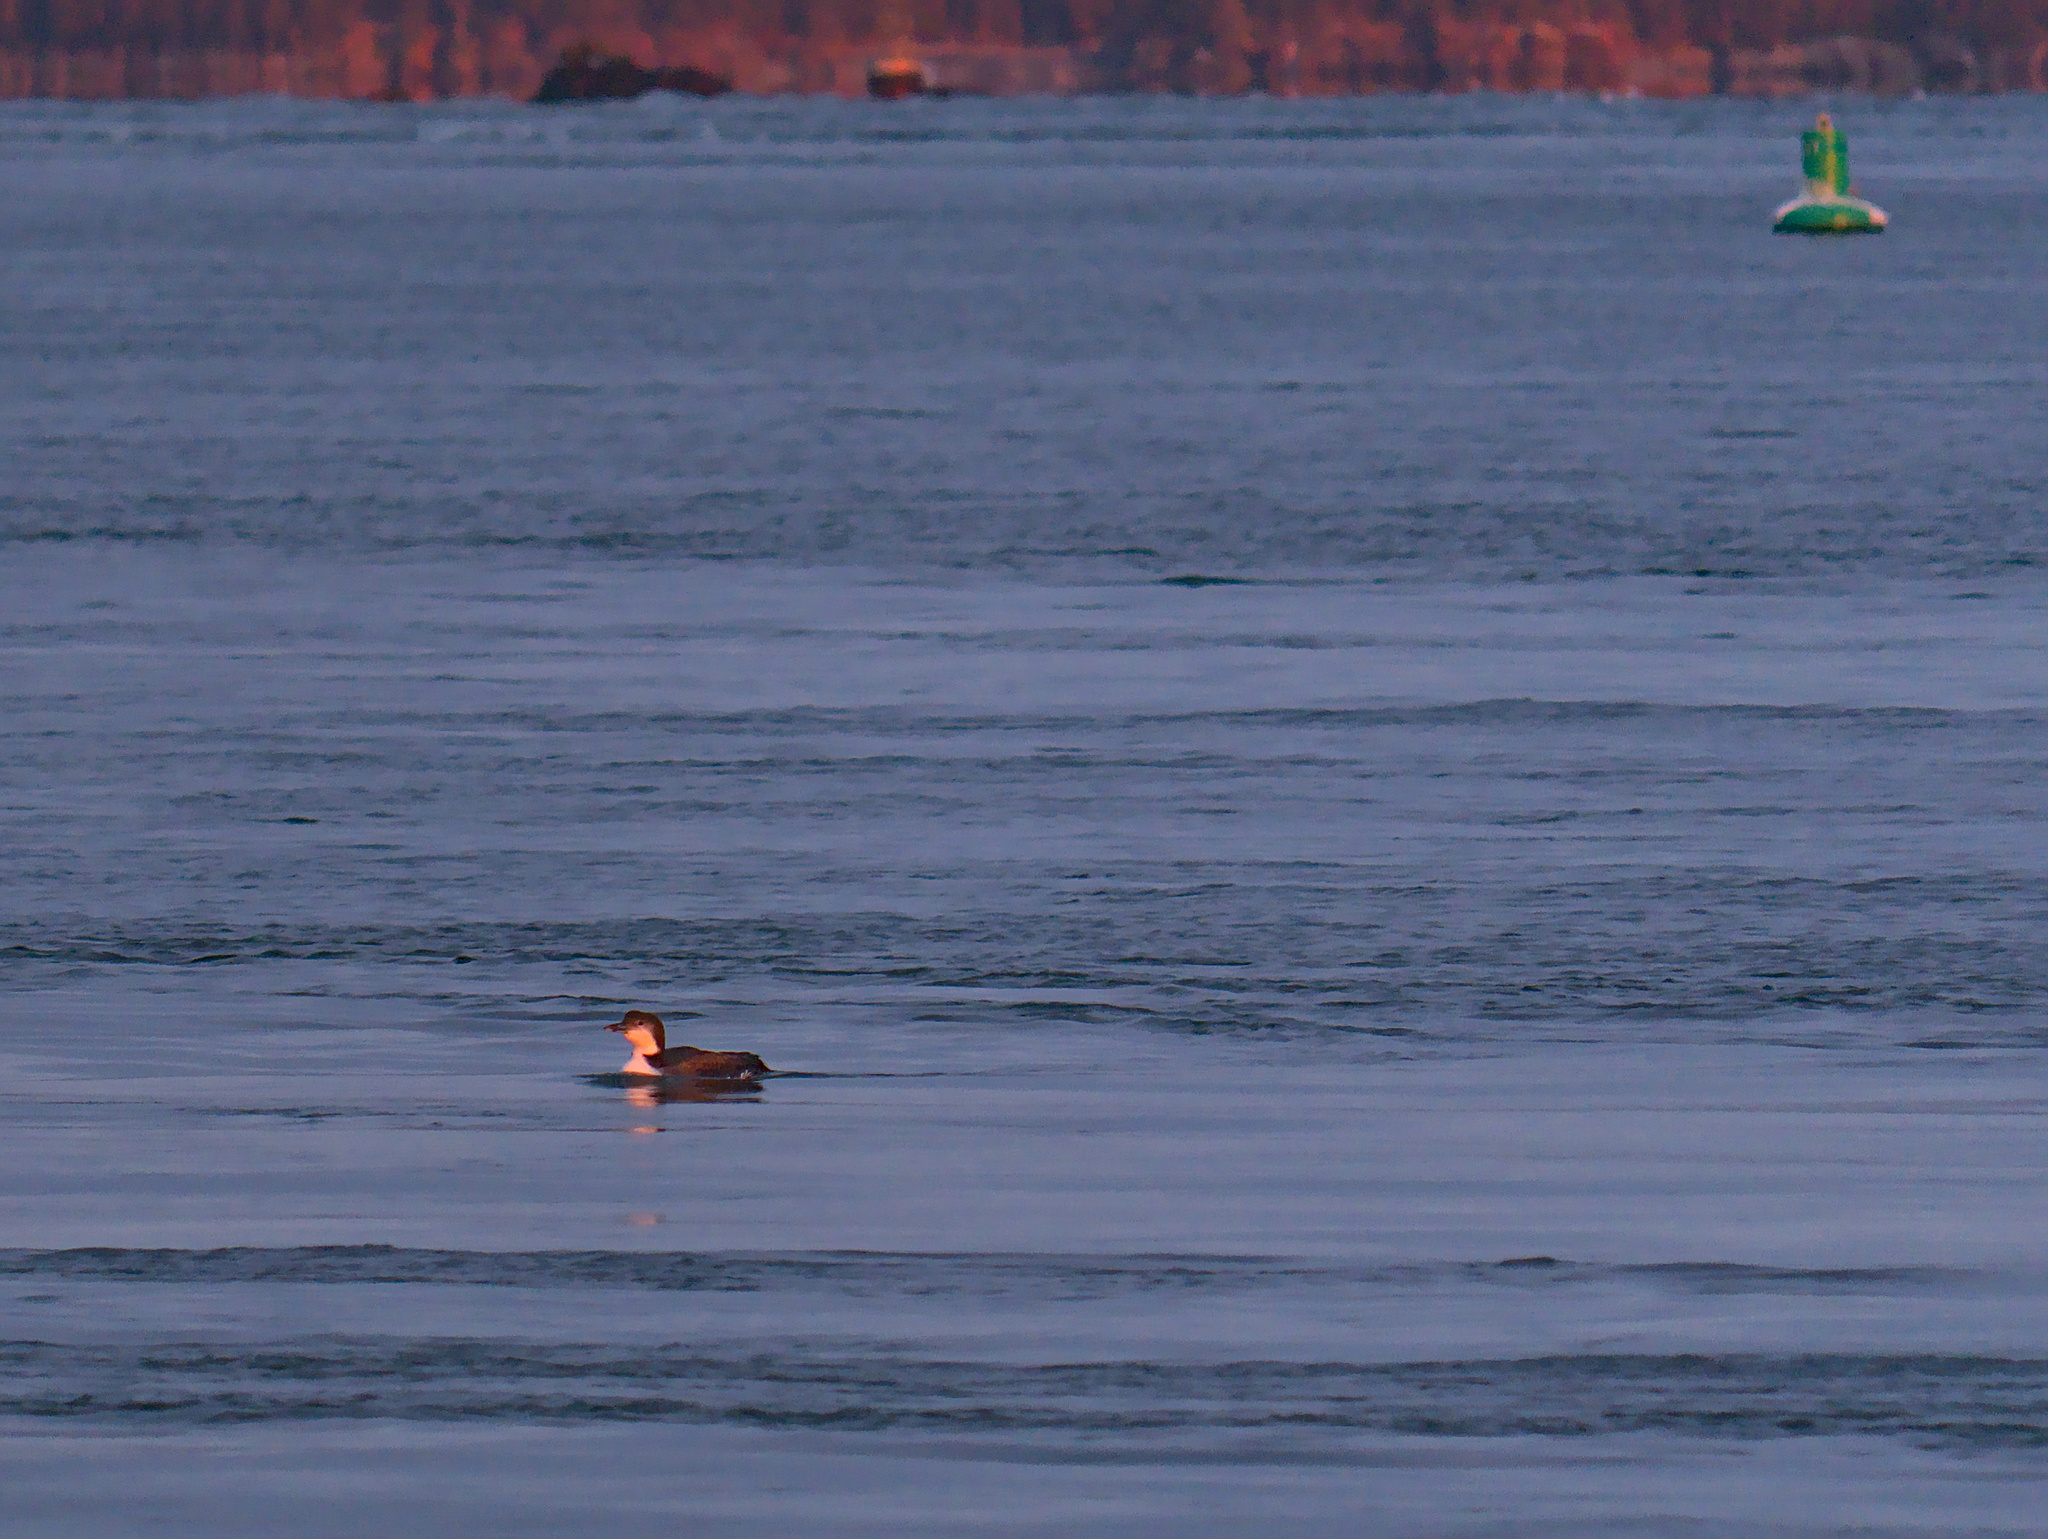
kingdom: Animalia
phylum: Chordata
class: Aves
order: Gaviiformes
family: Gaviidae
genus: Gavia
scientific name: Gavia immer
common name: Common loon
